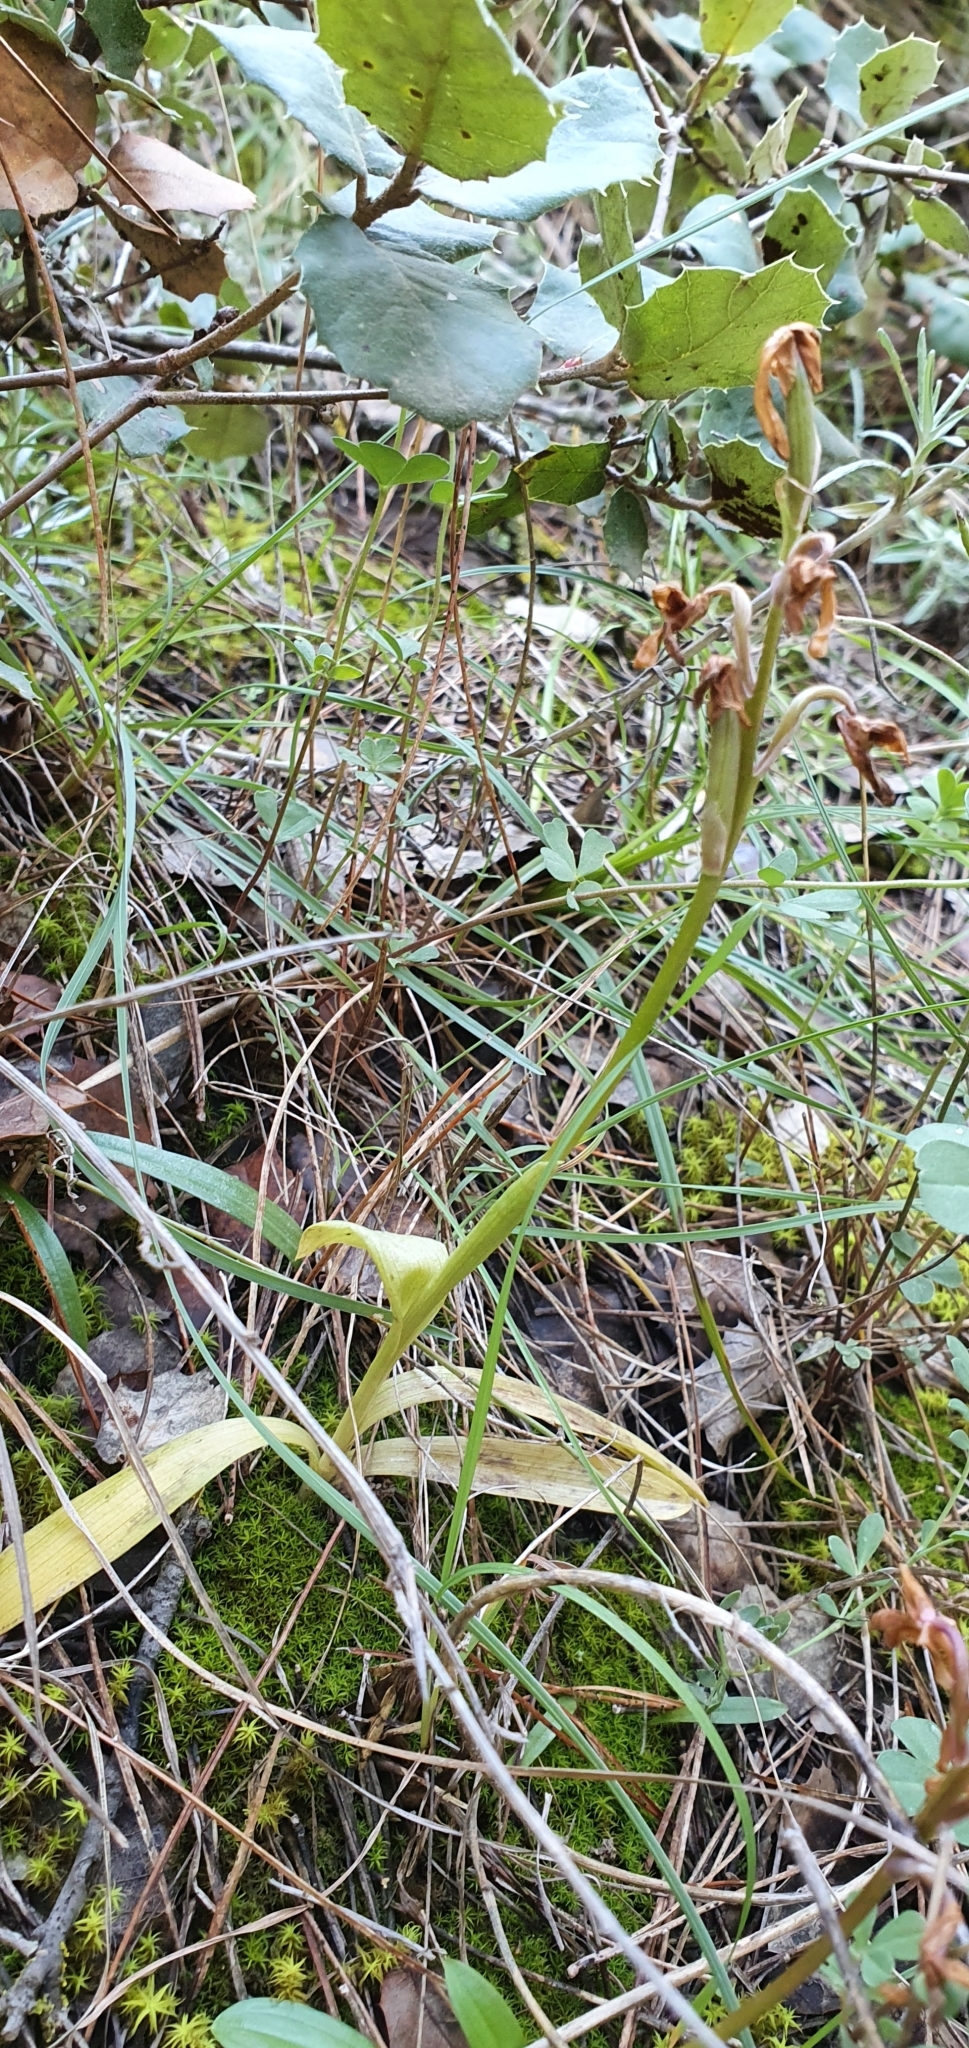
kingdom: Plantae
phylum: Tracheophyta
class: Liliopsida
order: Asparagales
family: Orchidaceae
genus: Orchis
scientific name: Orchis laeta
